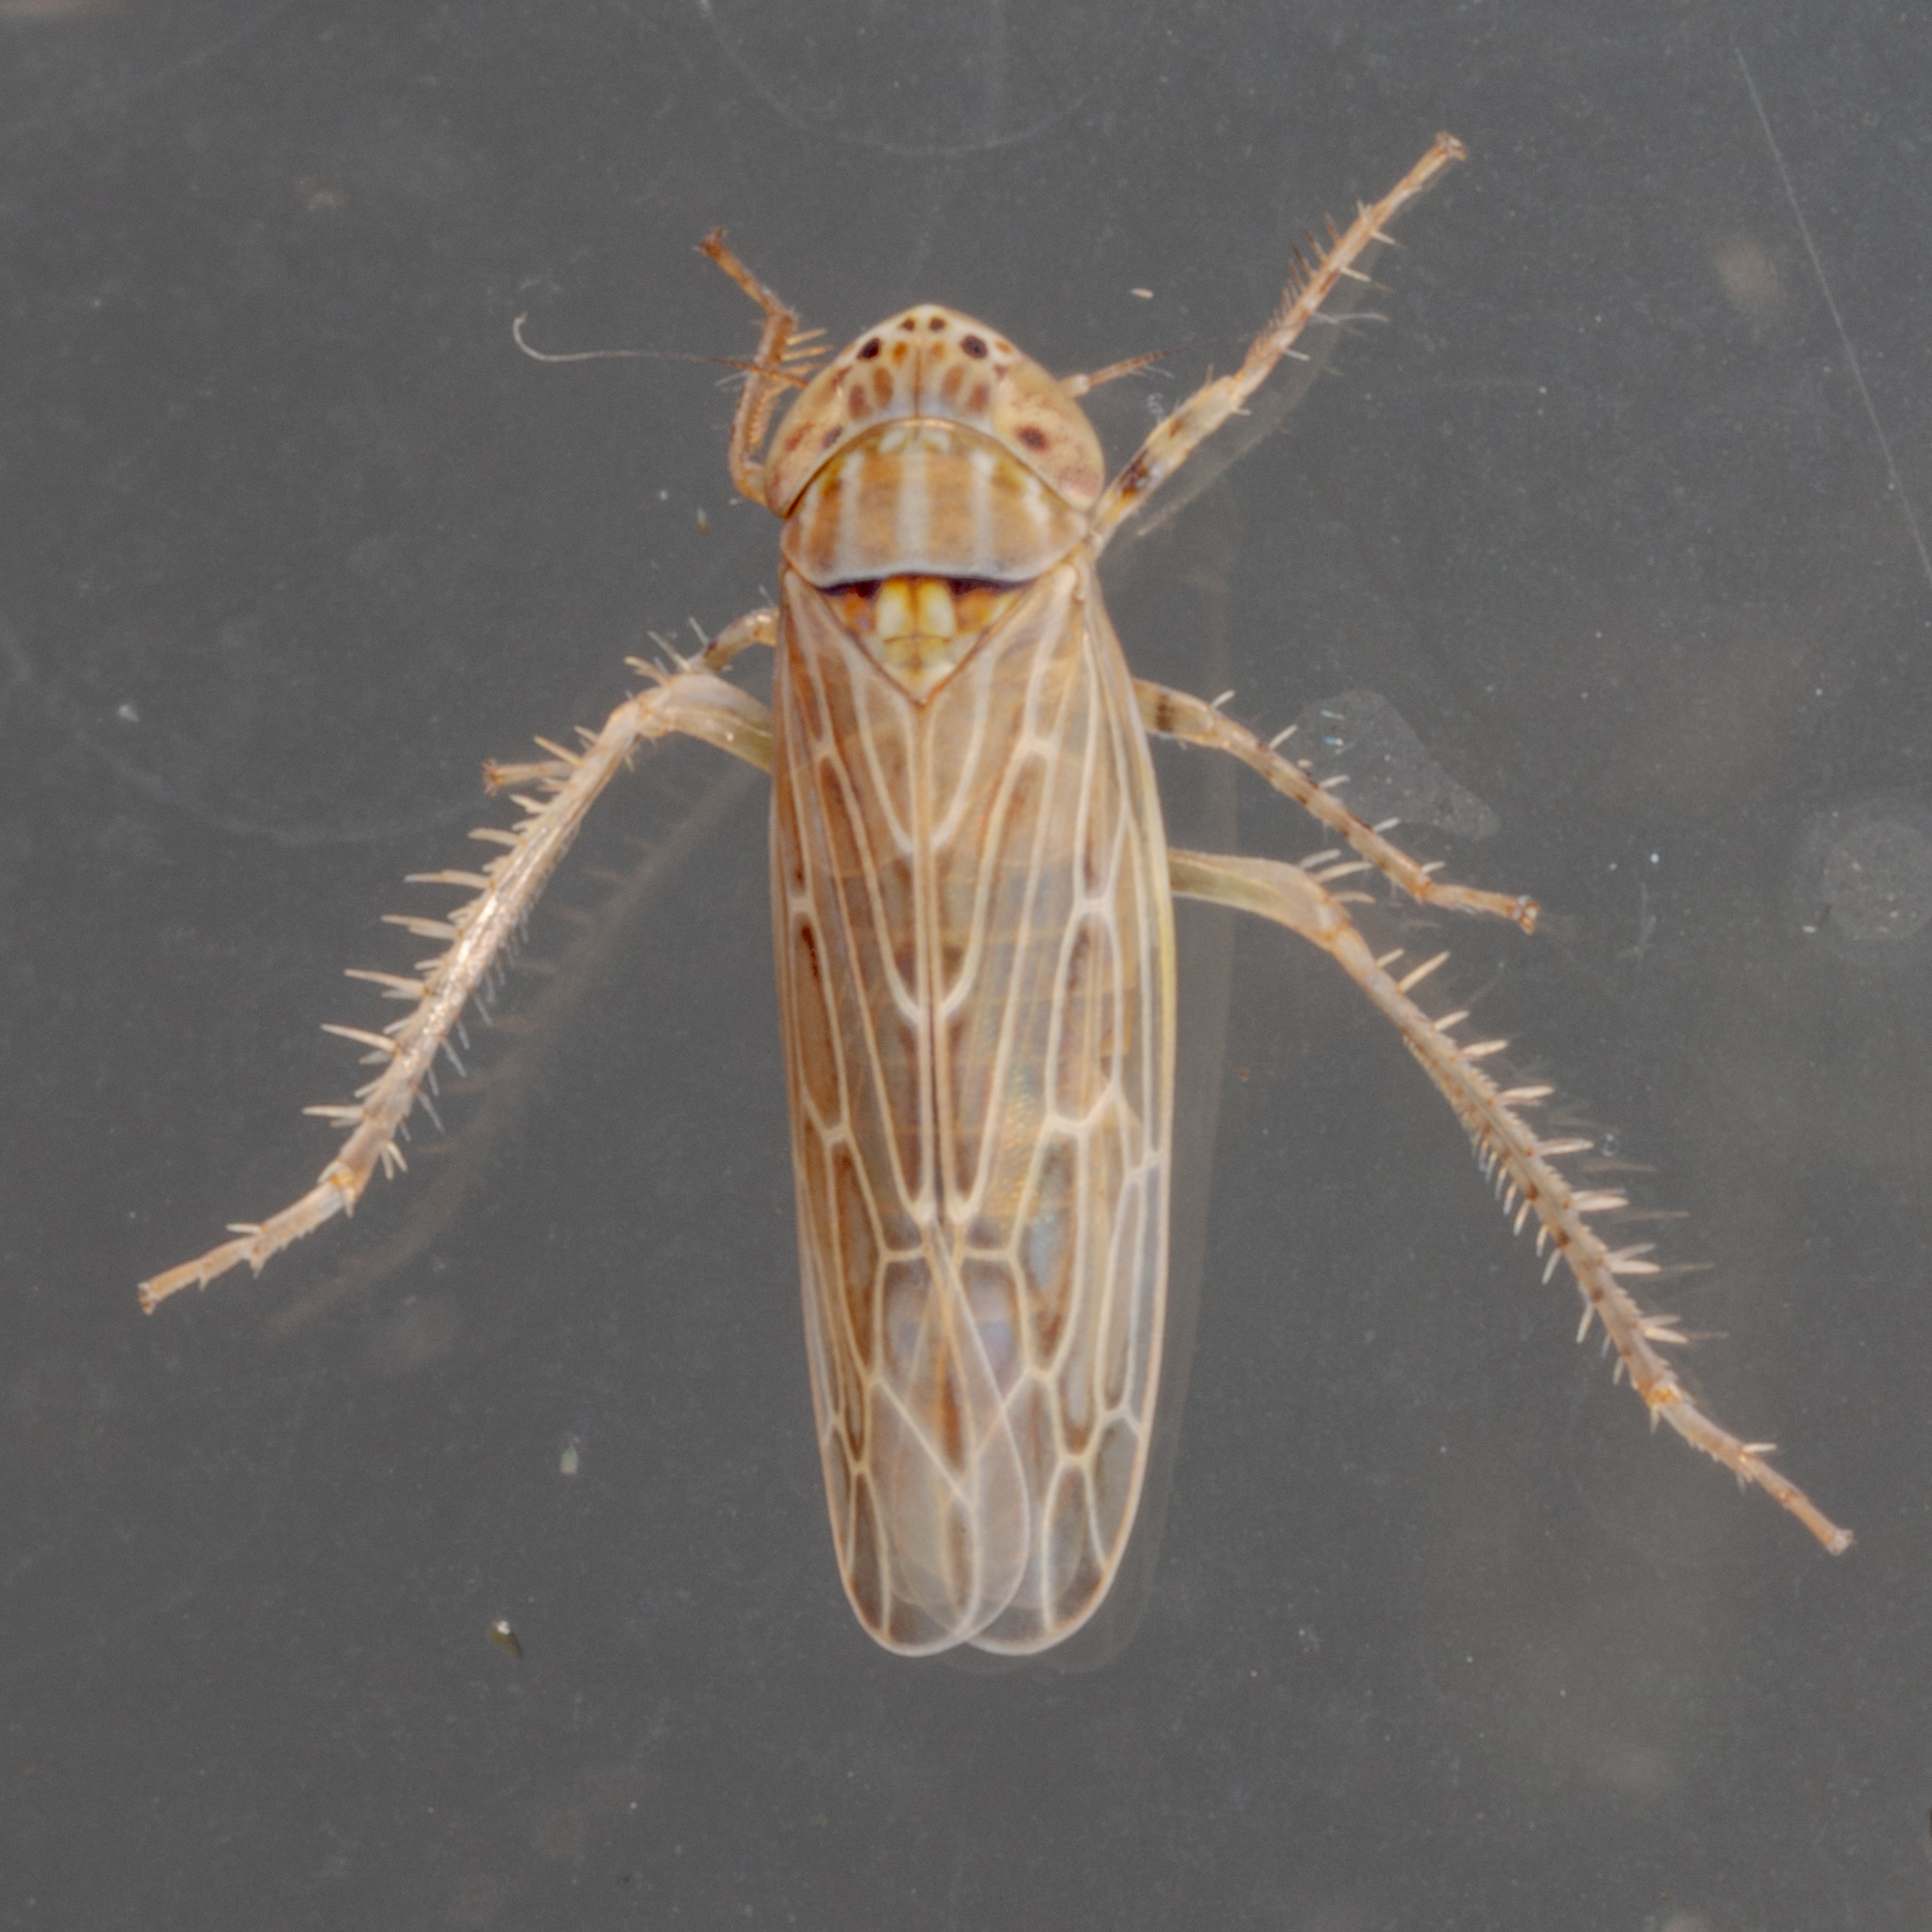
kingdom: Animalia
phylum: Arthropoda
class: Insecta
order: Hemiptera
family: Cicadellidae
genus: Graminella
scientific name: Graminella sonora
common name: Lesser lawn leafhopper
